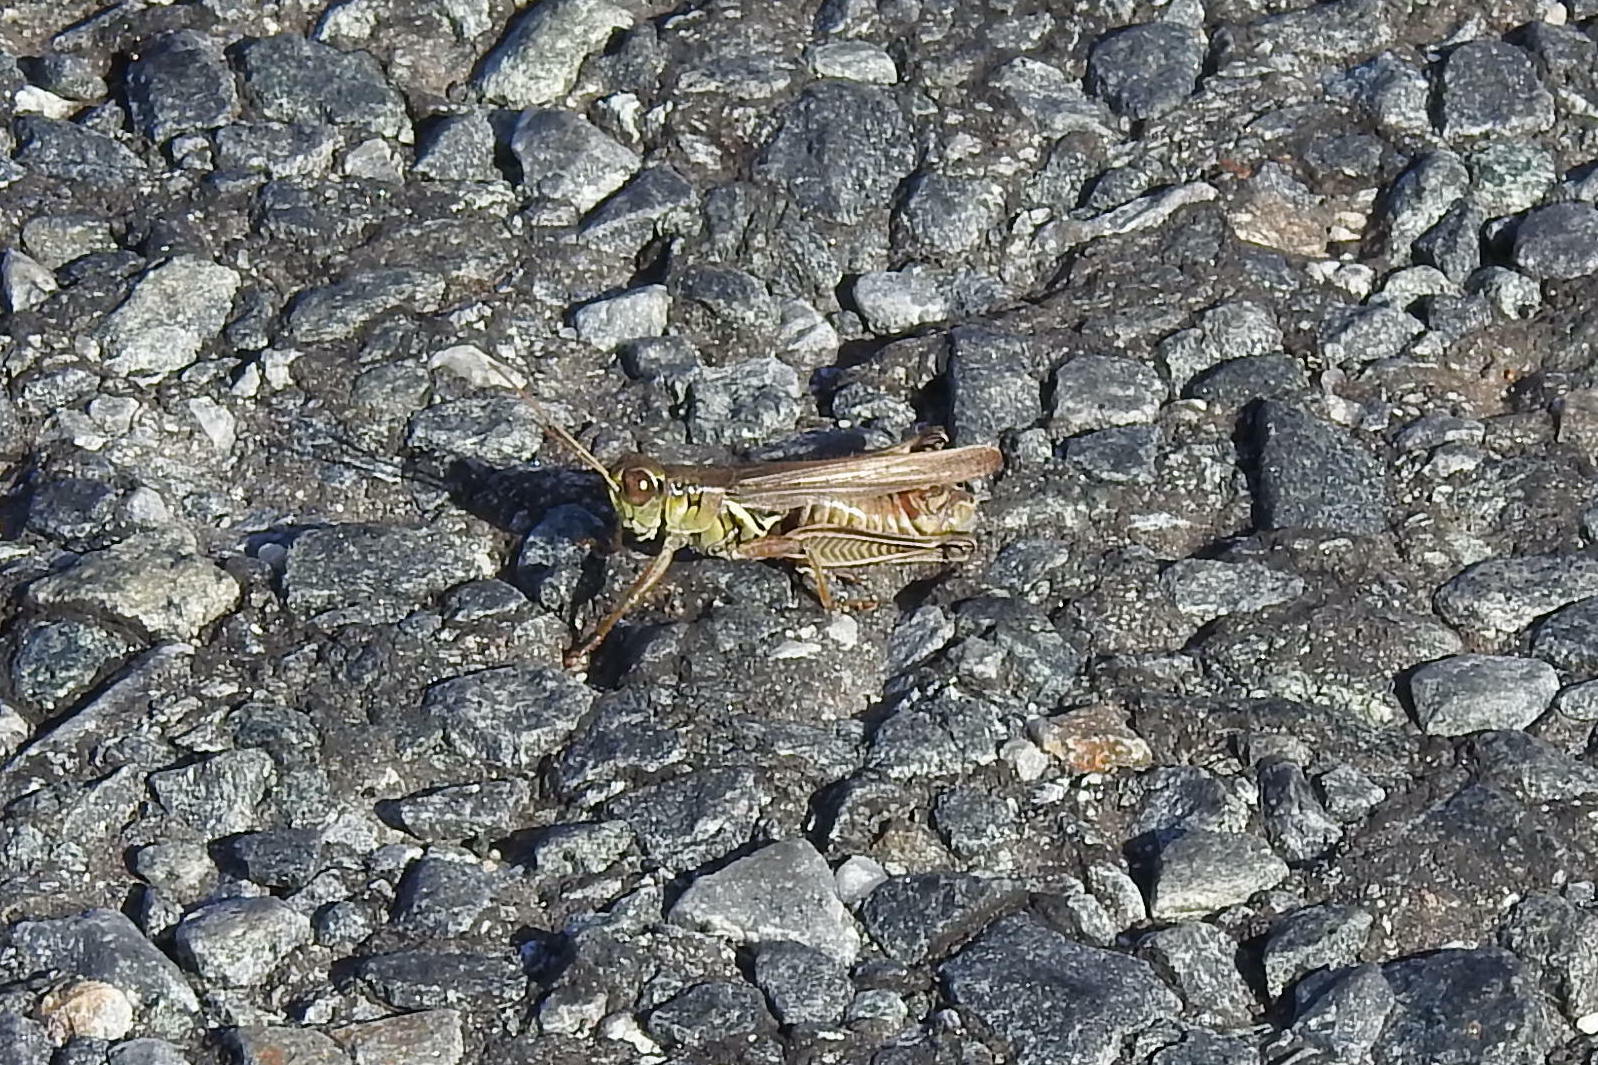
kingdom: Animalia
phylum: Arthropoda
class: Insecta
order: Orthoptera
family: Acrididae
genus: Melanoplus
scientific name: Melanoplus femurrubrum
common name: Red-legged grasshopper
